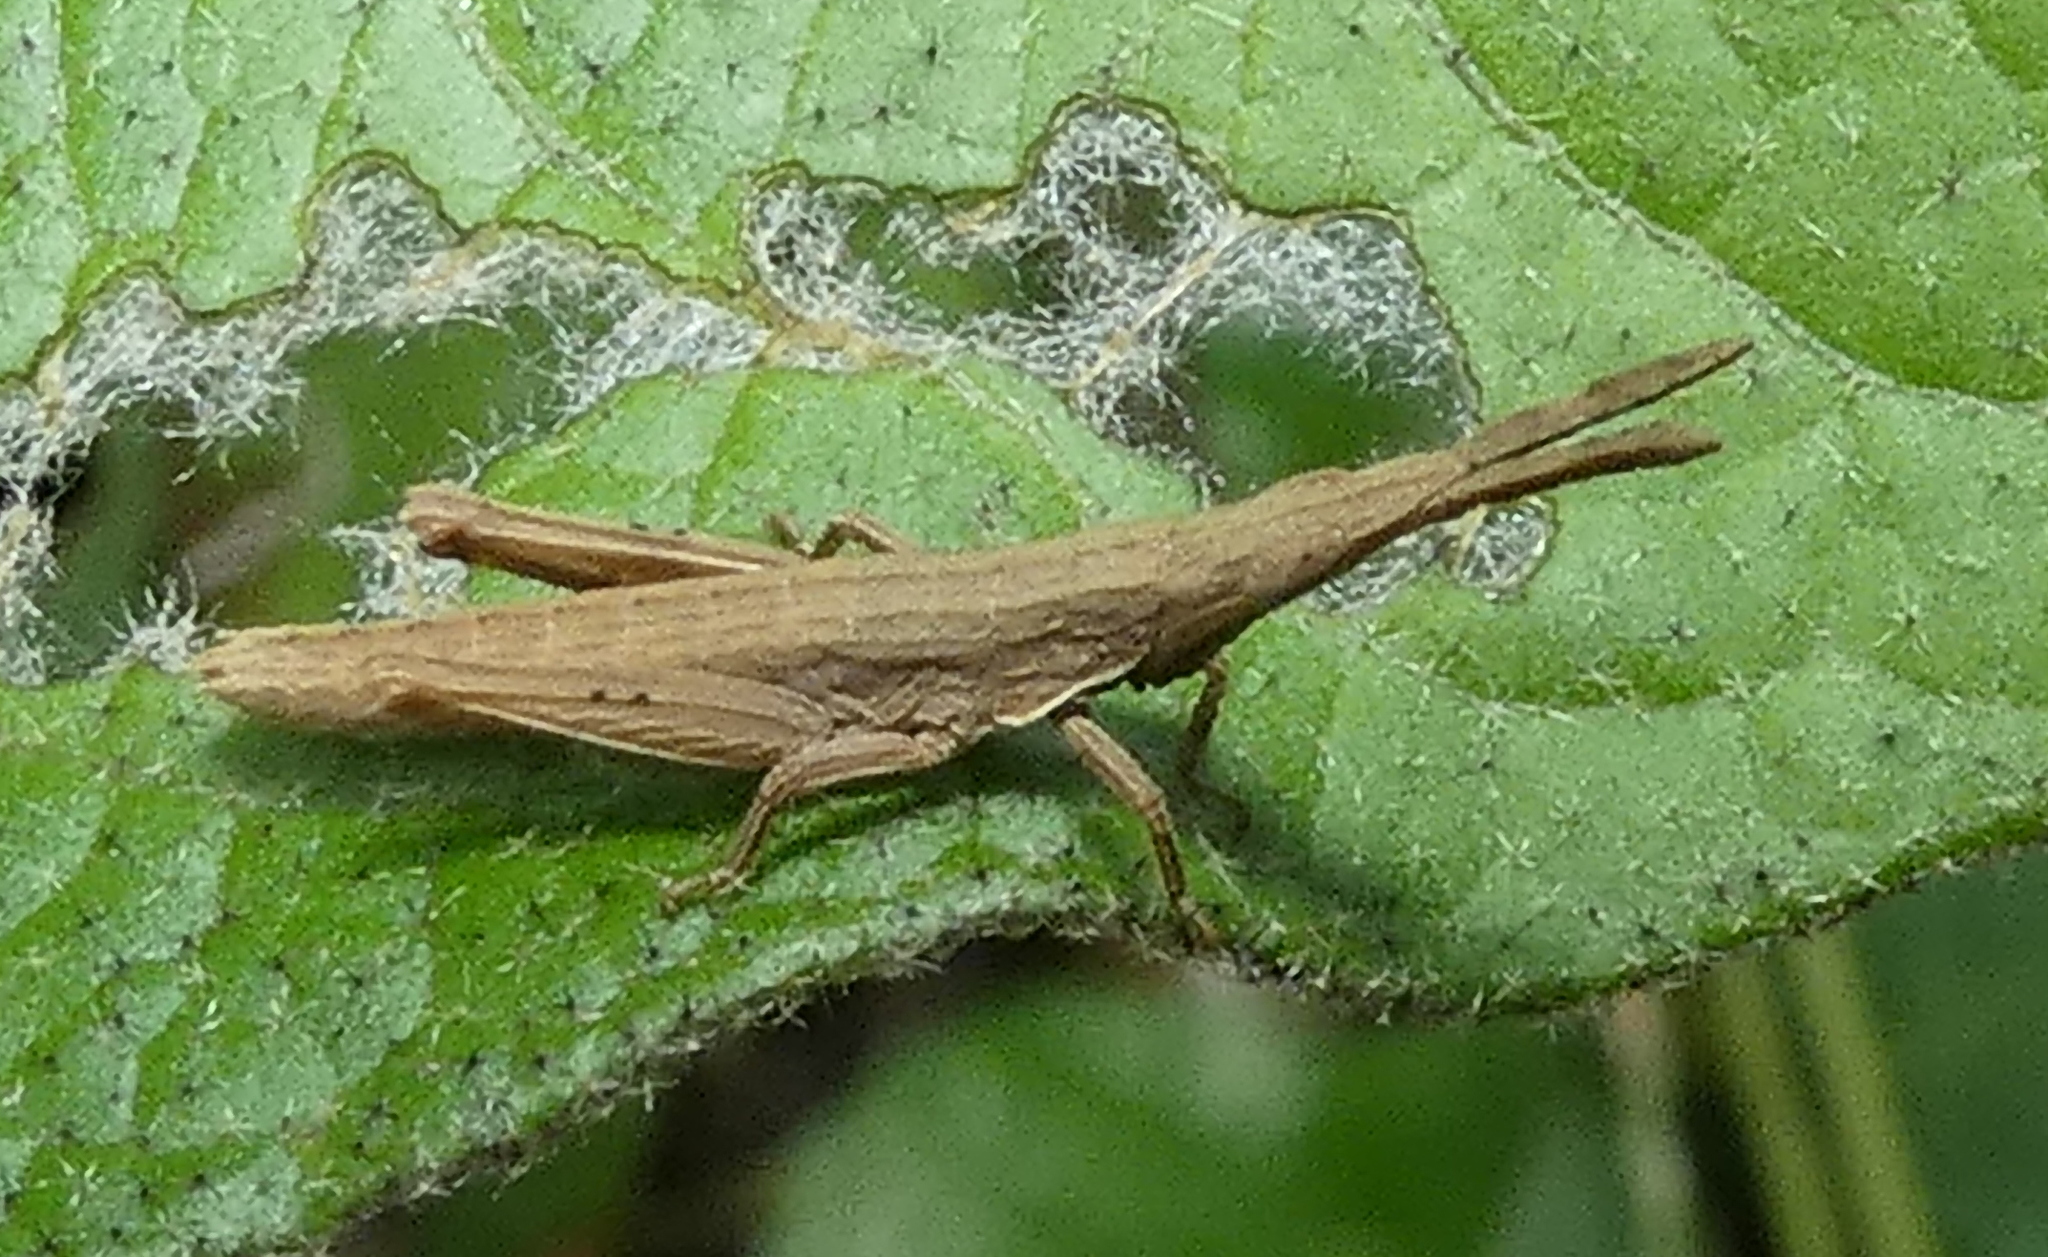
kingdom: Animalia
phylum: Arthropoda
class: Insecta
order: Orthoptera
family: Pyrgomorphidae
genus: Algete
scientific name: Algete brunneri
